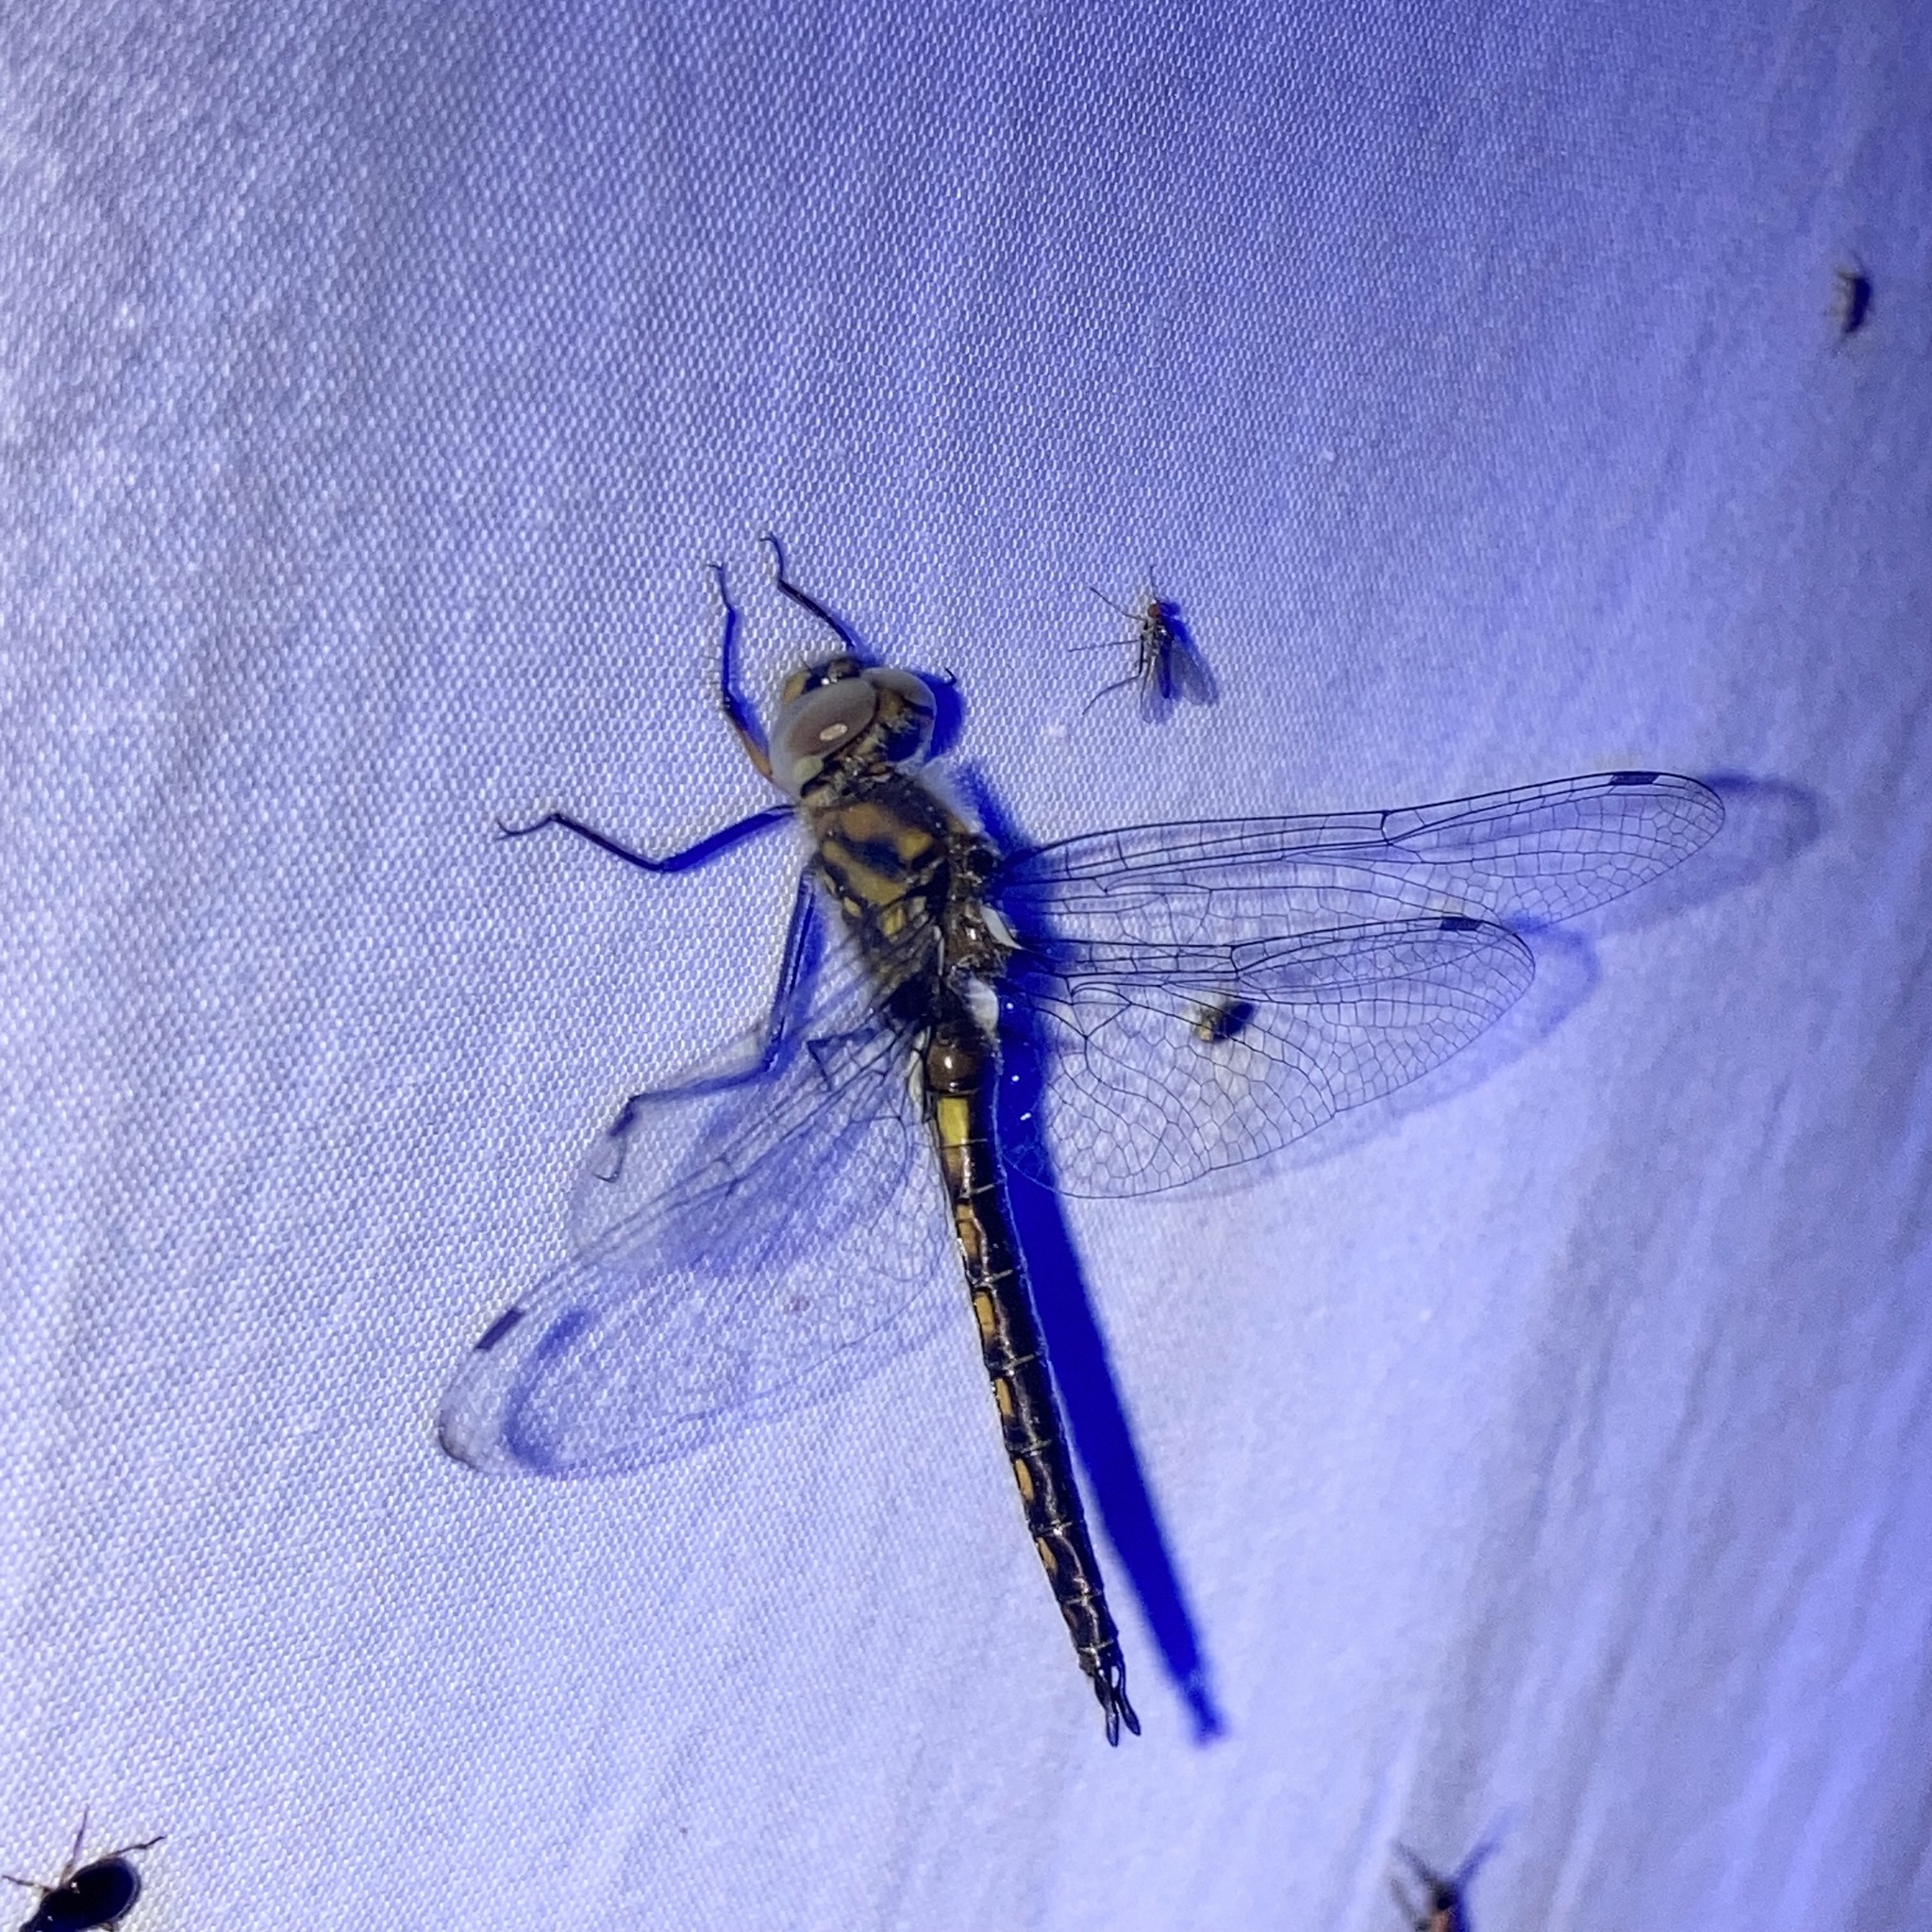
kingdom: Animalia
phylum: Arthropoda
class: Insecta
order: Odonata
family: Corduliidae
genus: Epitheca
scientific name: Epitheca cynosura
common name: Common baskettail
